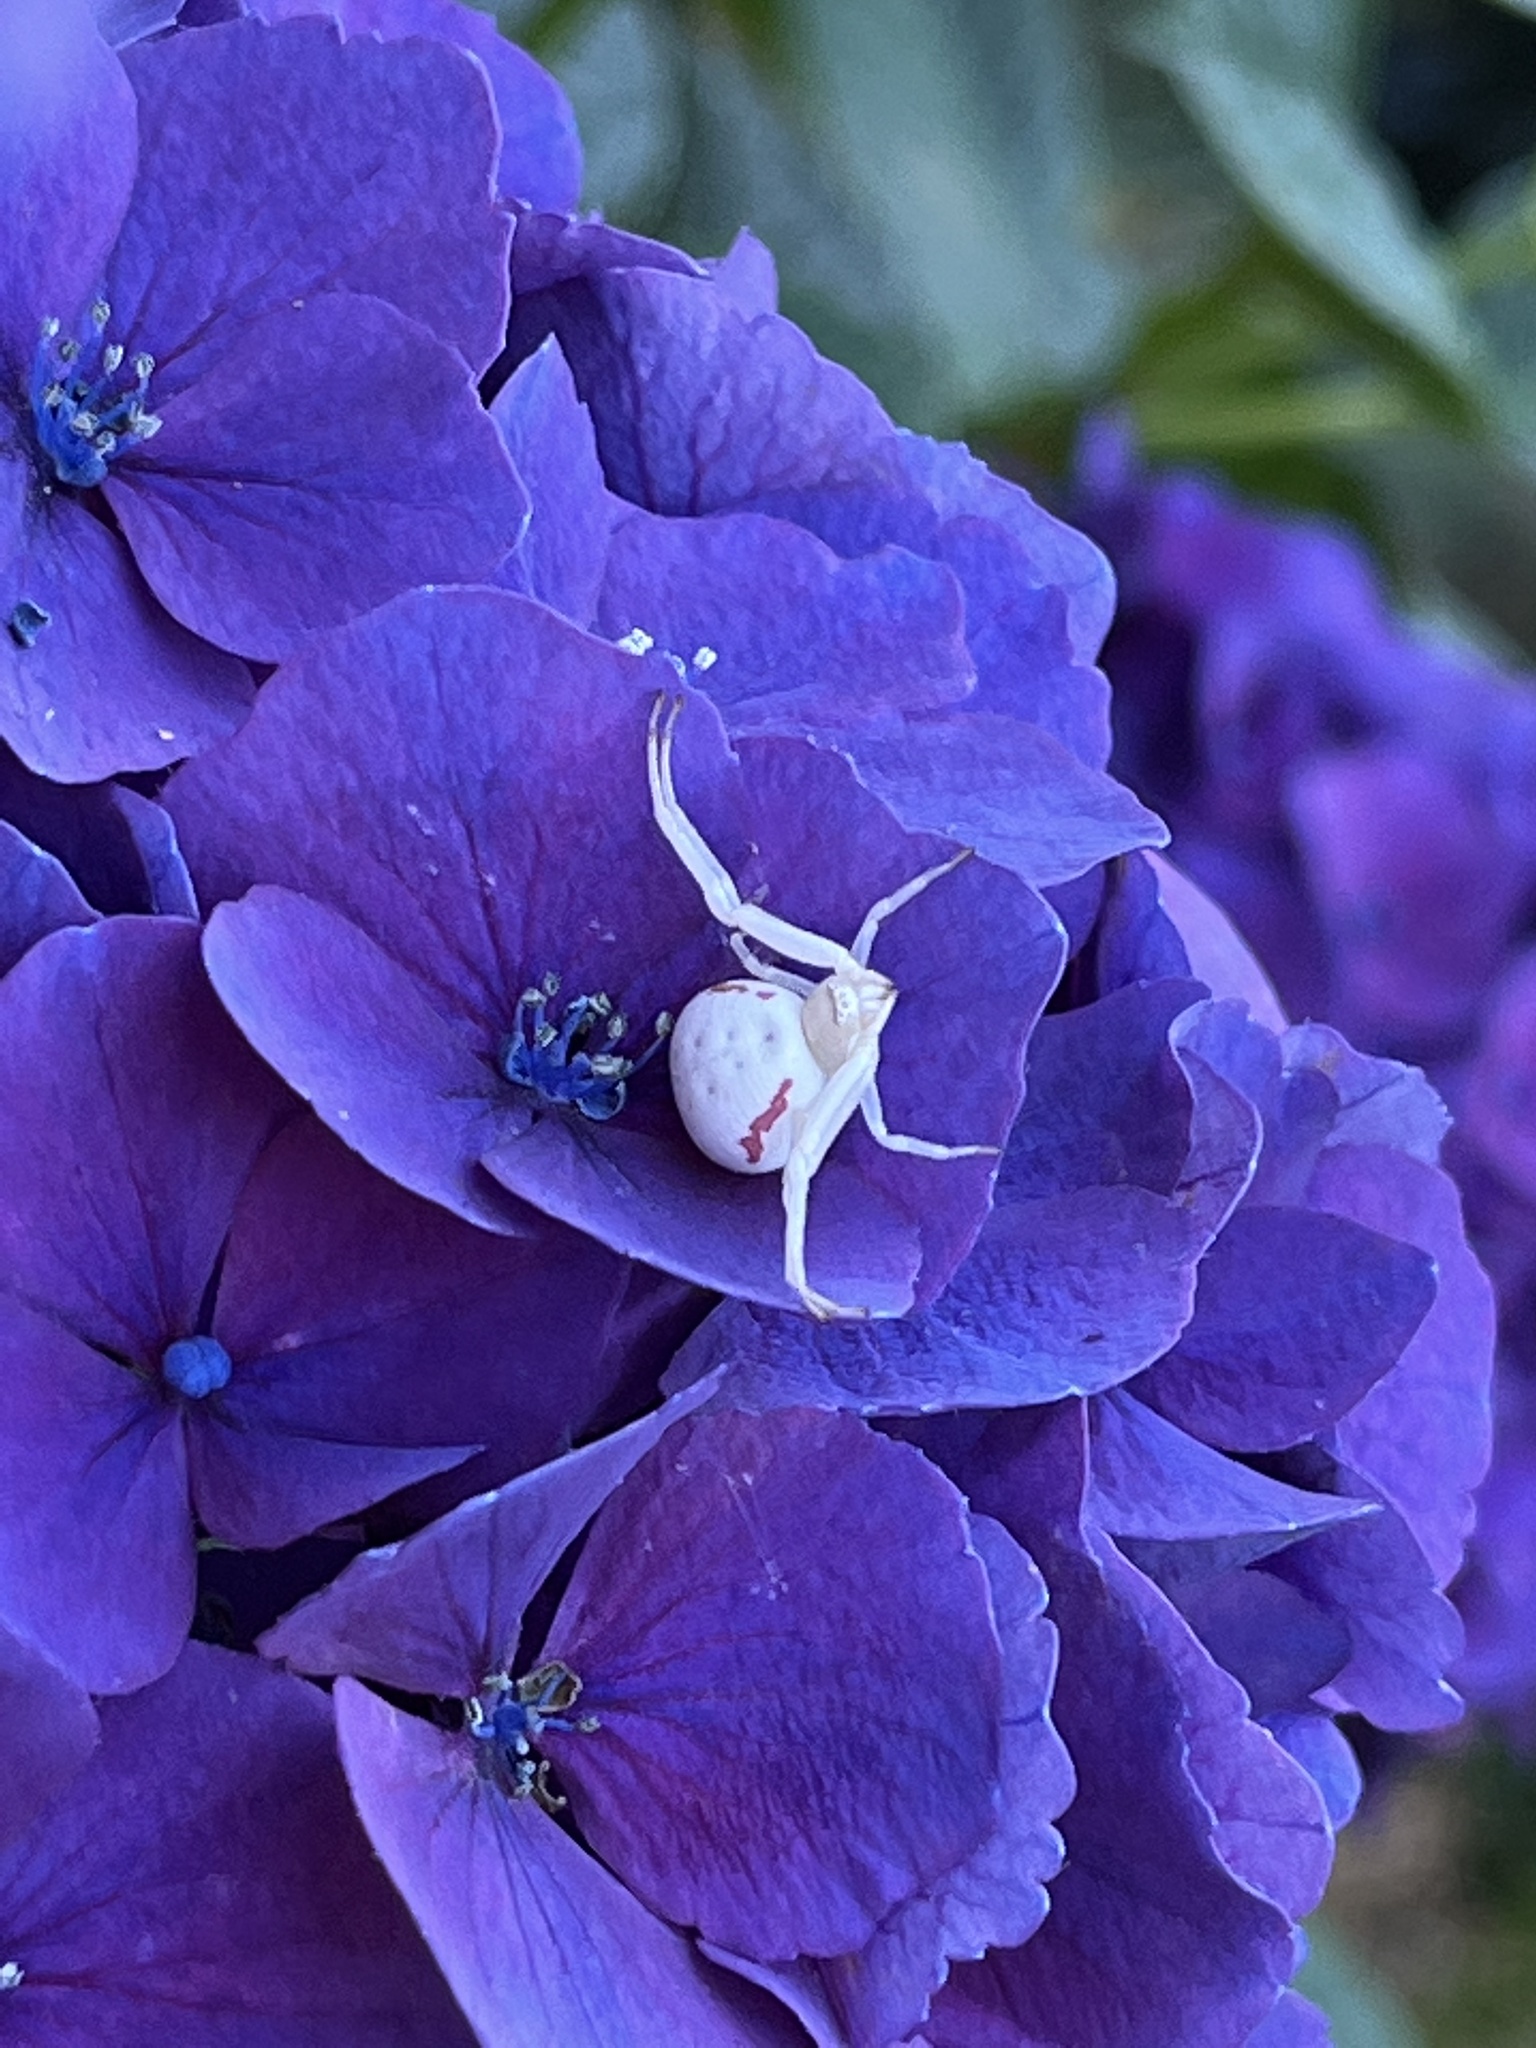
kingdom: Animalia
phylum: Arthropoda
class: Arachnida
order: Araneae
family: Thomisidae
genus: Misumena
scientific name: Misumena vatia
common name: Goldenrod crab spider
